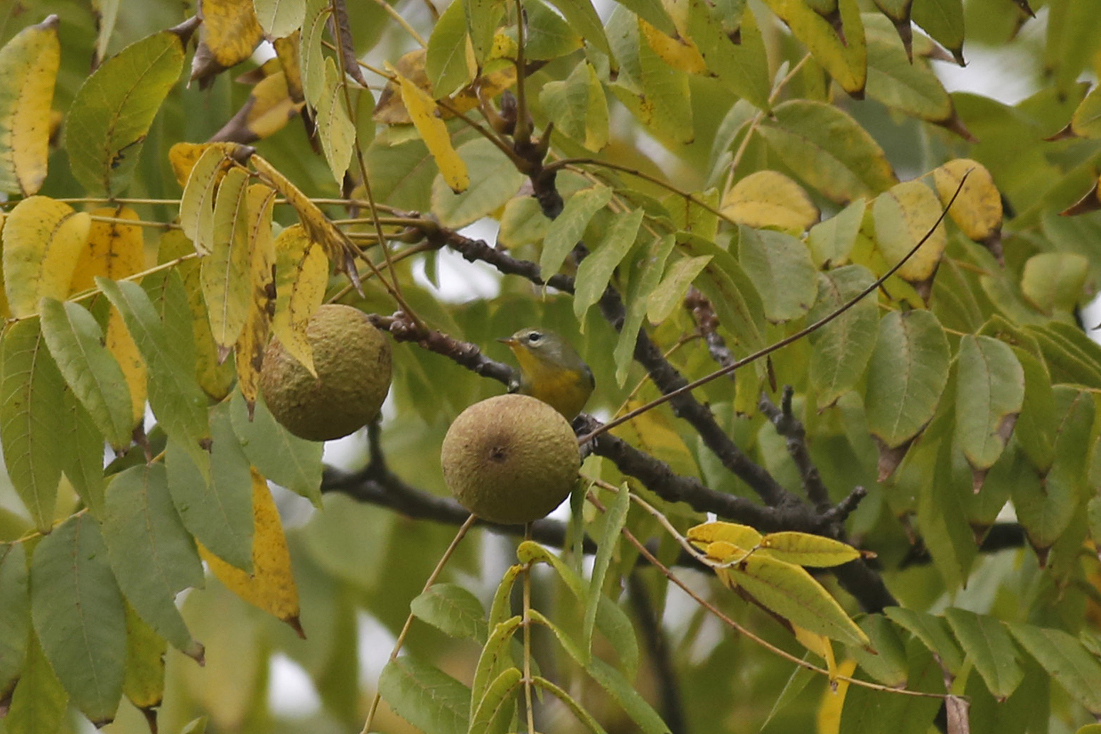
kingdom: Animalia
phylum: Chordata
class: Aves
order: Passeriformes
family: Parulidae
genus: Setophaga
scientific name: Setophaga americana
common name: Northern parula
